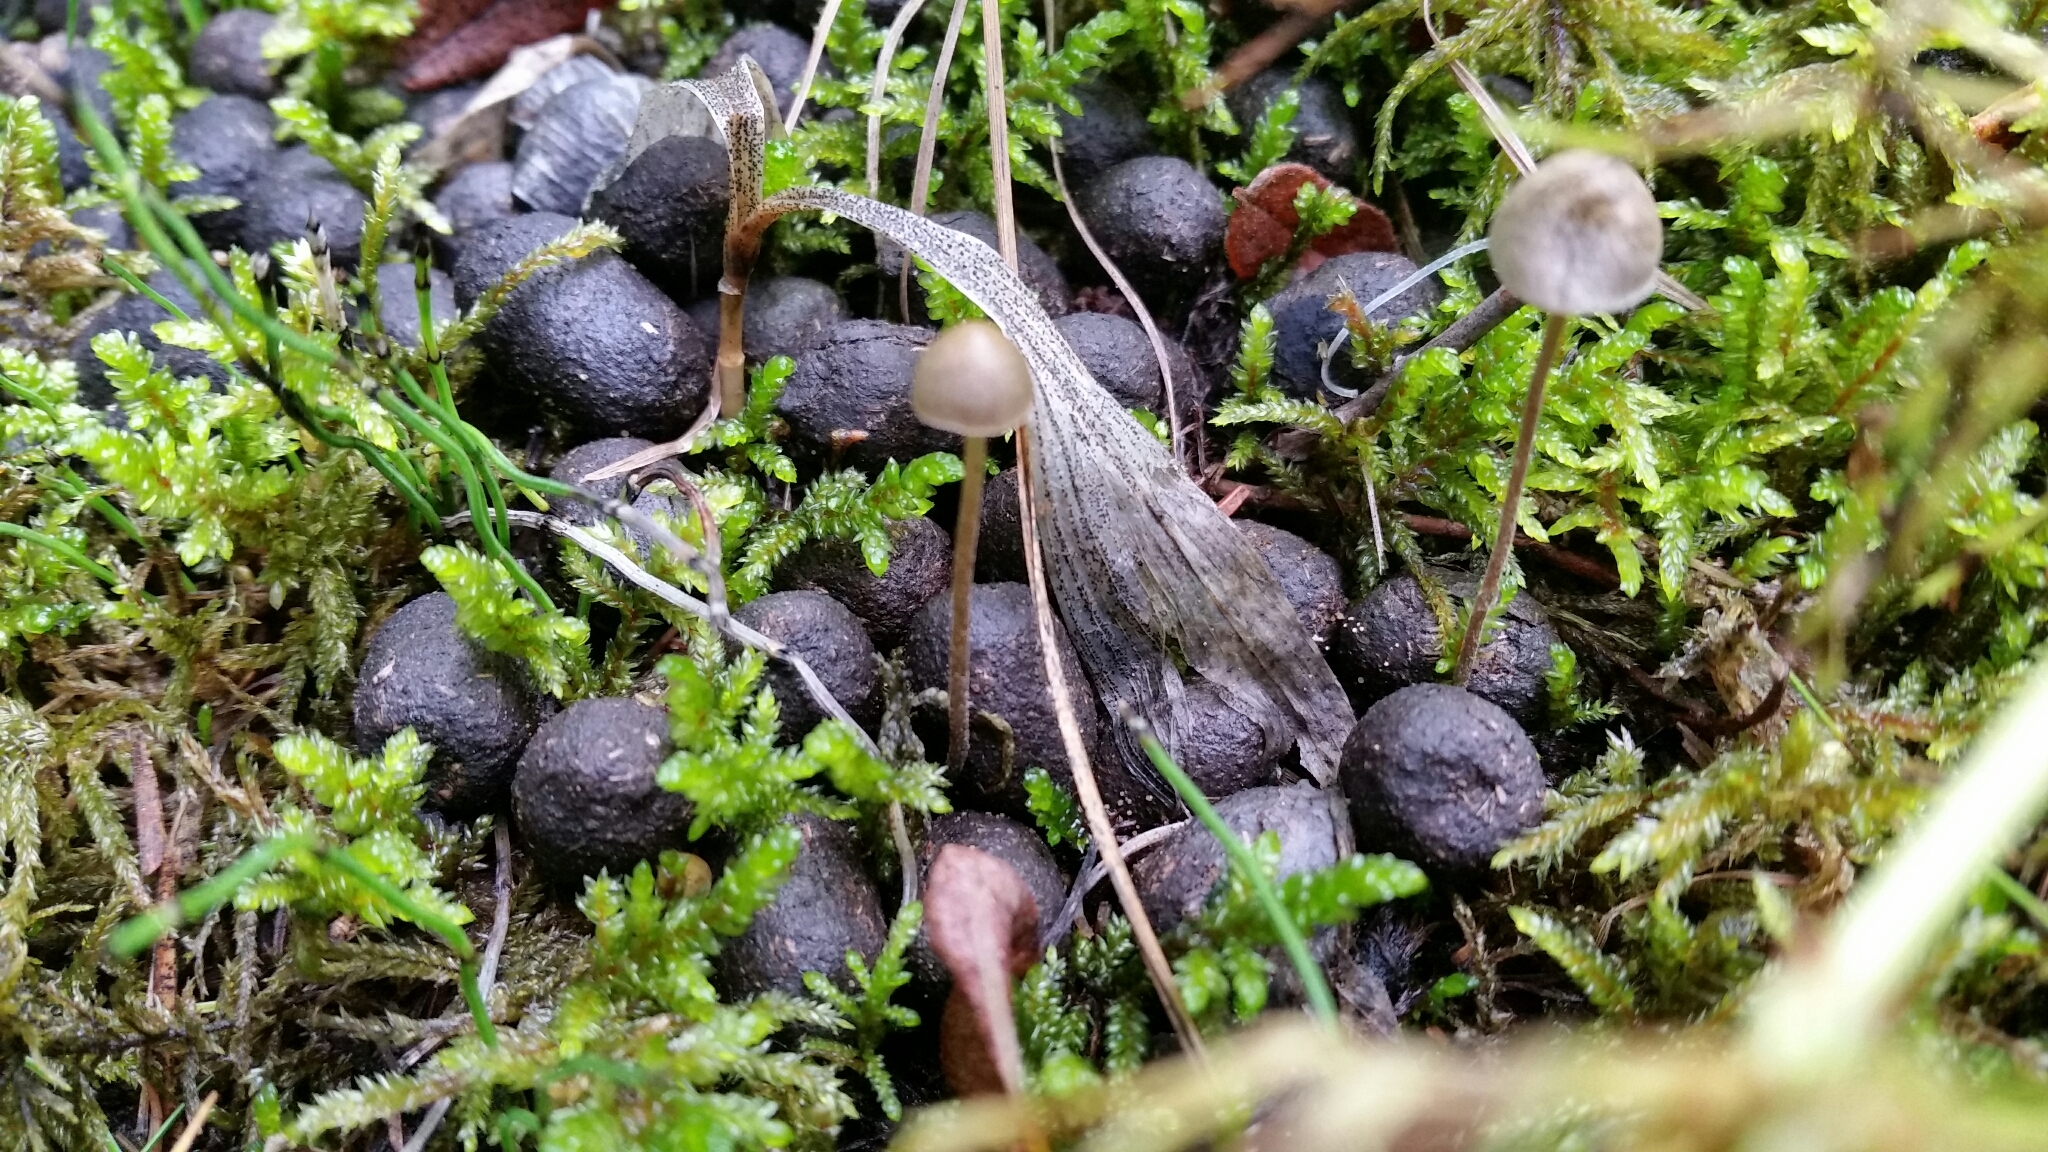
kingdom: Plantae
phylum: Bryophyta
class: Bryopsida
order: Hypnales
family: Hylocomiaceae
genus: Pleurozium
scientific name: Pleurozium schreberi
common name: Red-stemmed feather moss
